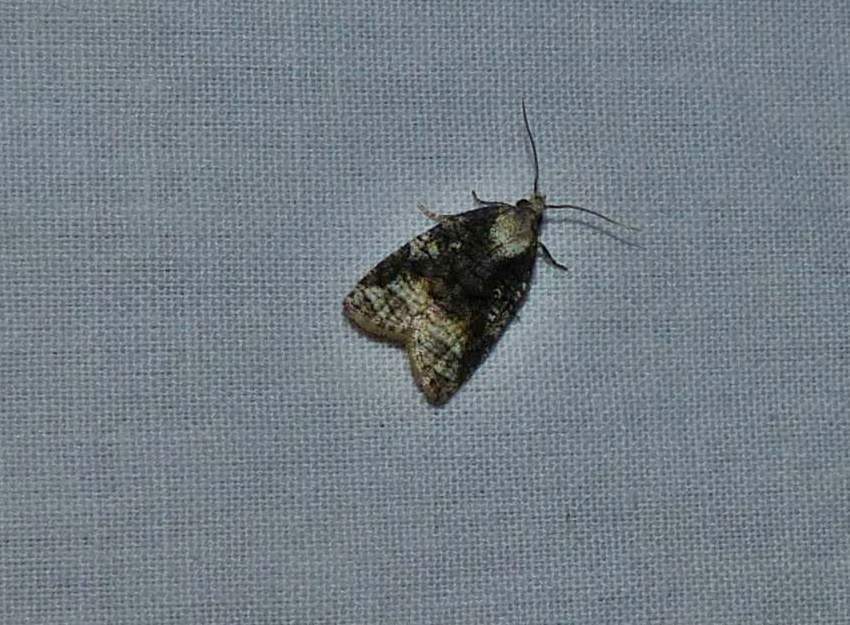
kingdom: Animalia
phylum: Arthropoda
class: Insecta
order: Lepidoptera
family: Tortricidae
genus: Platynota
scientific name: Platynota exasperatana
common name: Exasperating platynota moth
